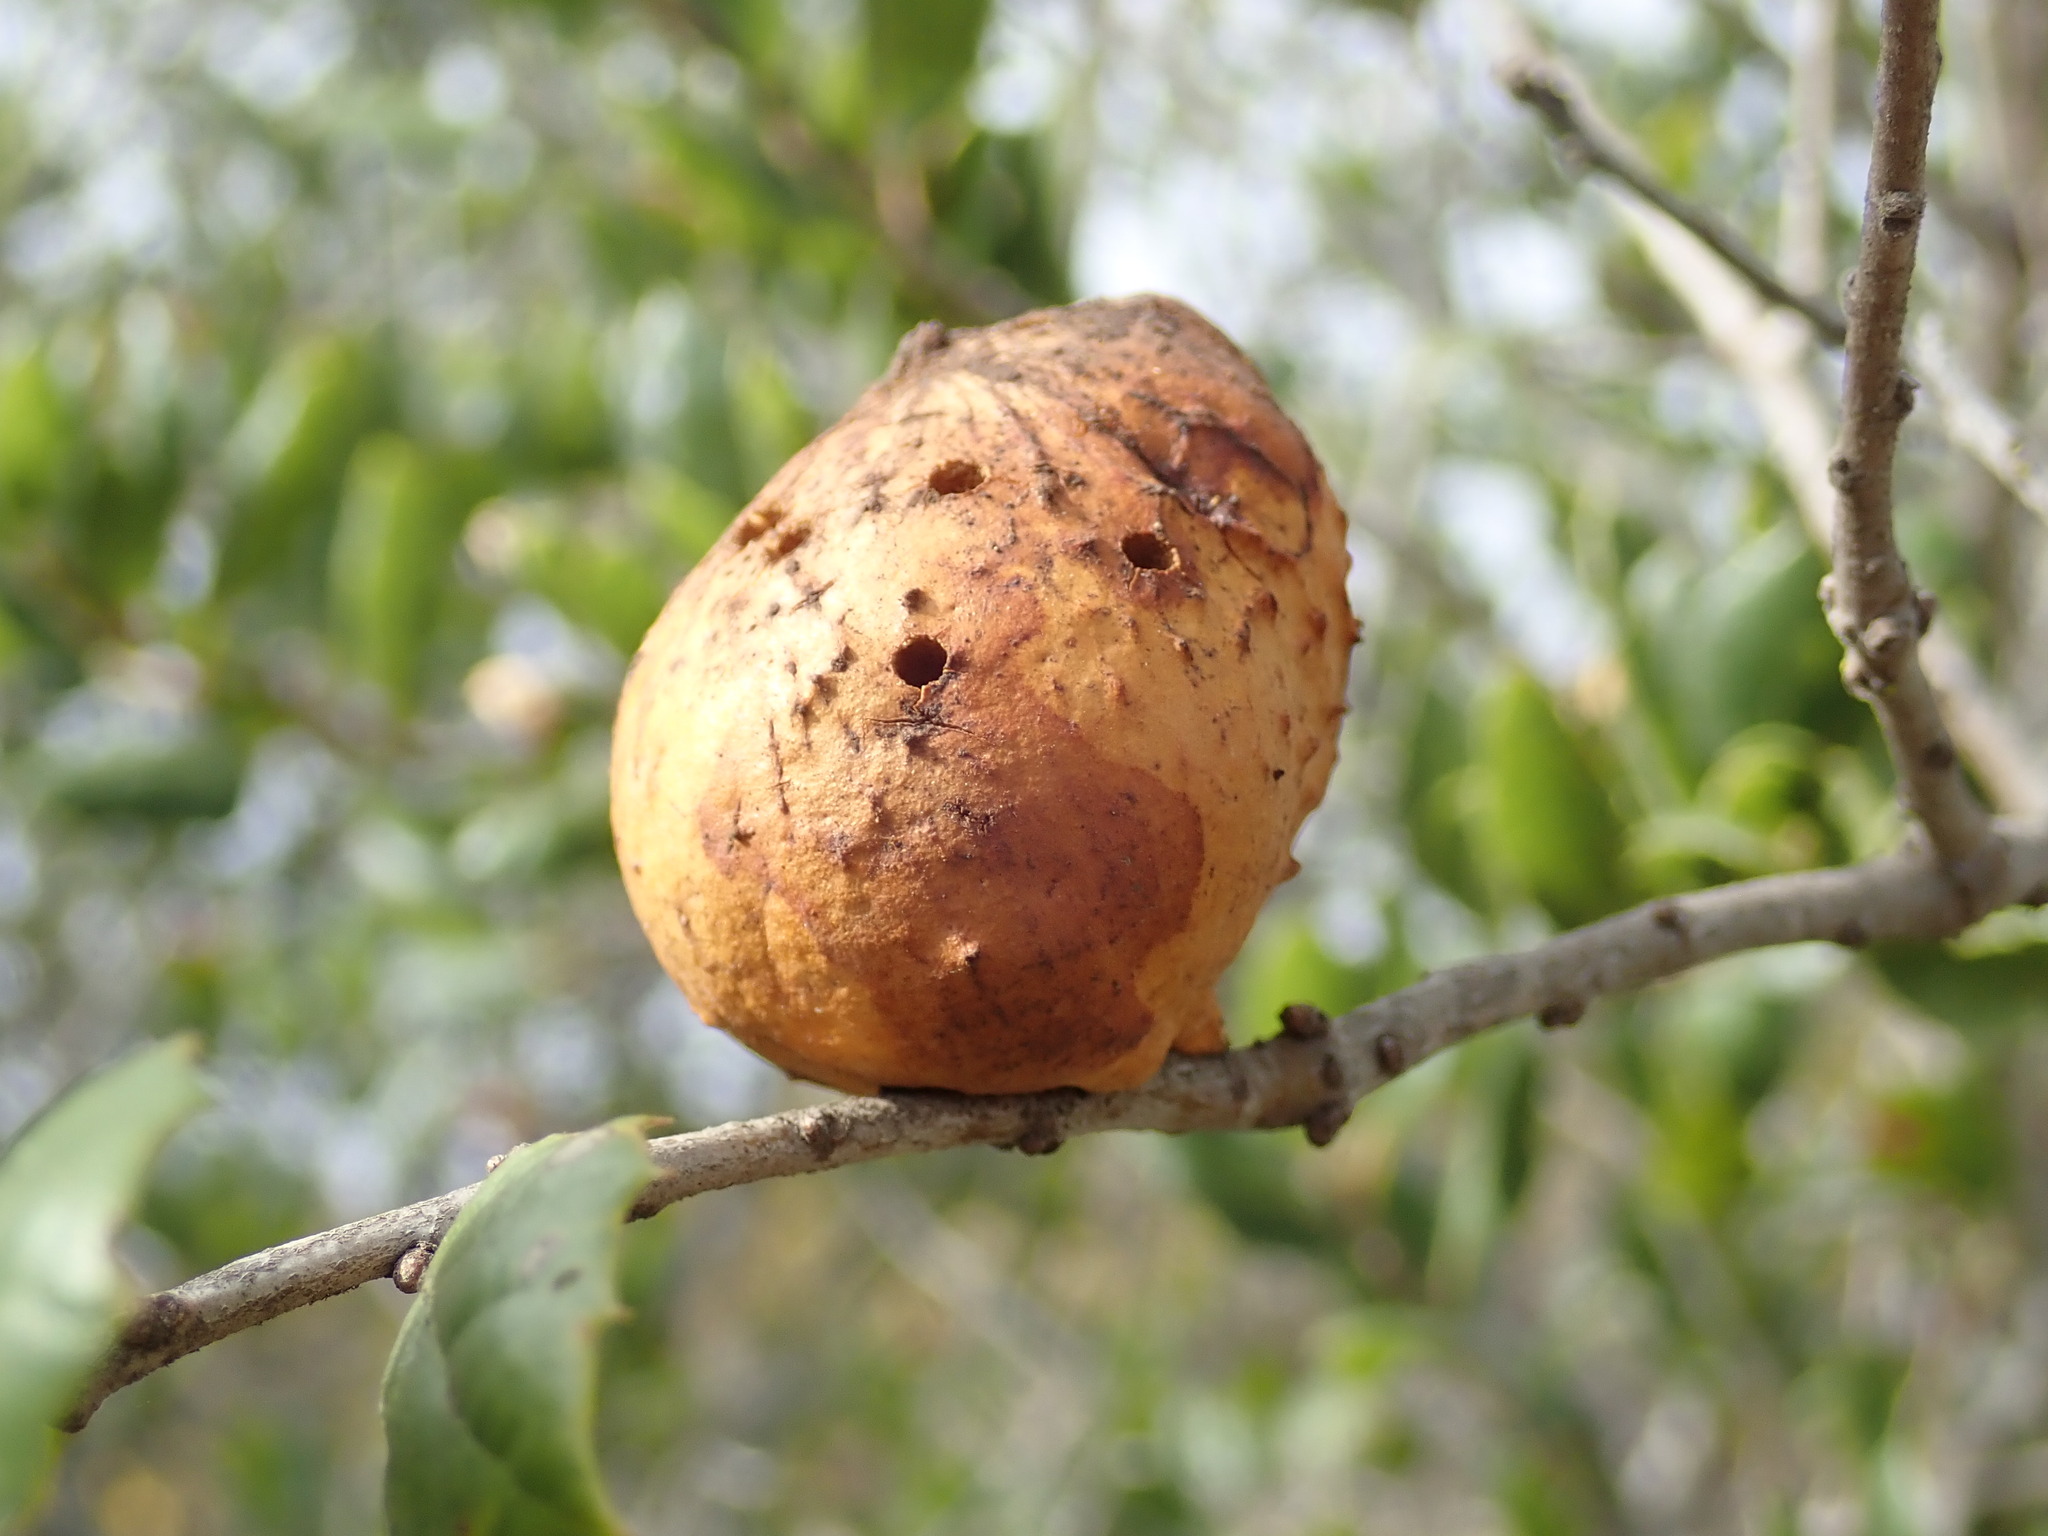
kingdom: Animalia
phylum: Arthropoda
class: Insecta
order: Hymenoptera
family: Cynipidae
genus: Amphibolips
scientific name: Amphibolips quercuspomiformis
